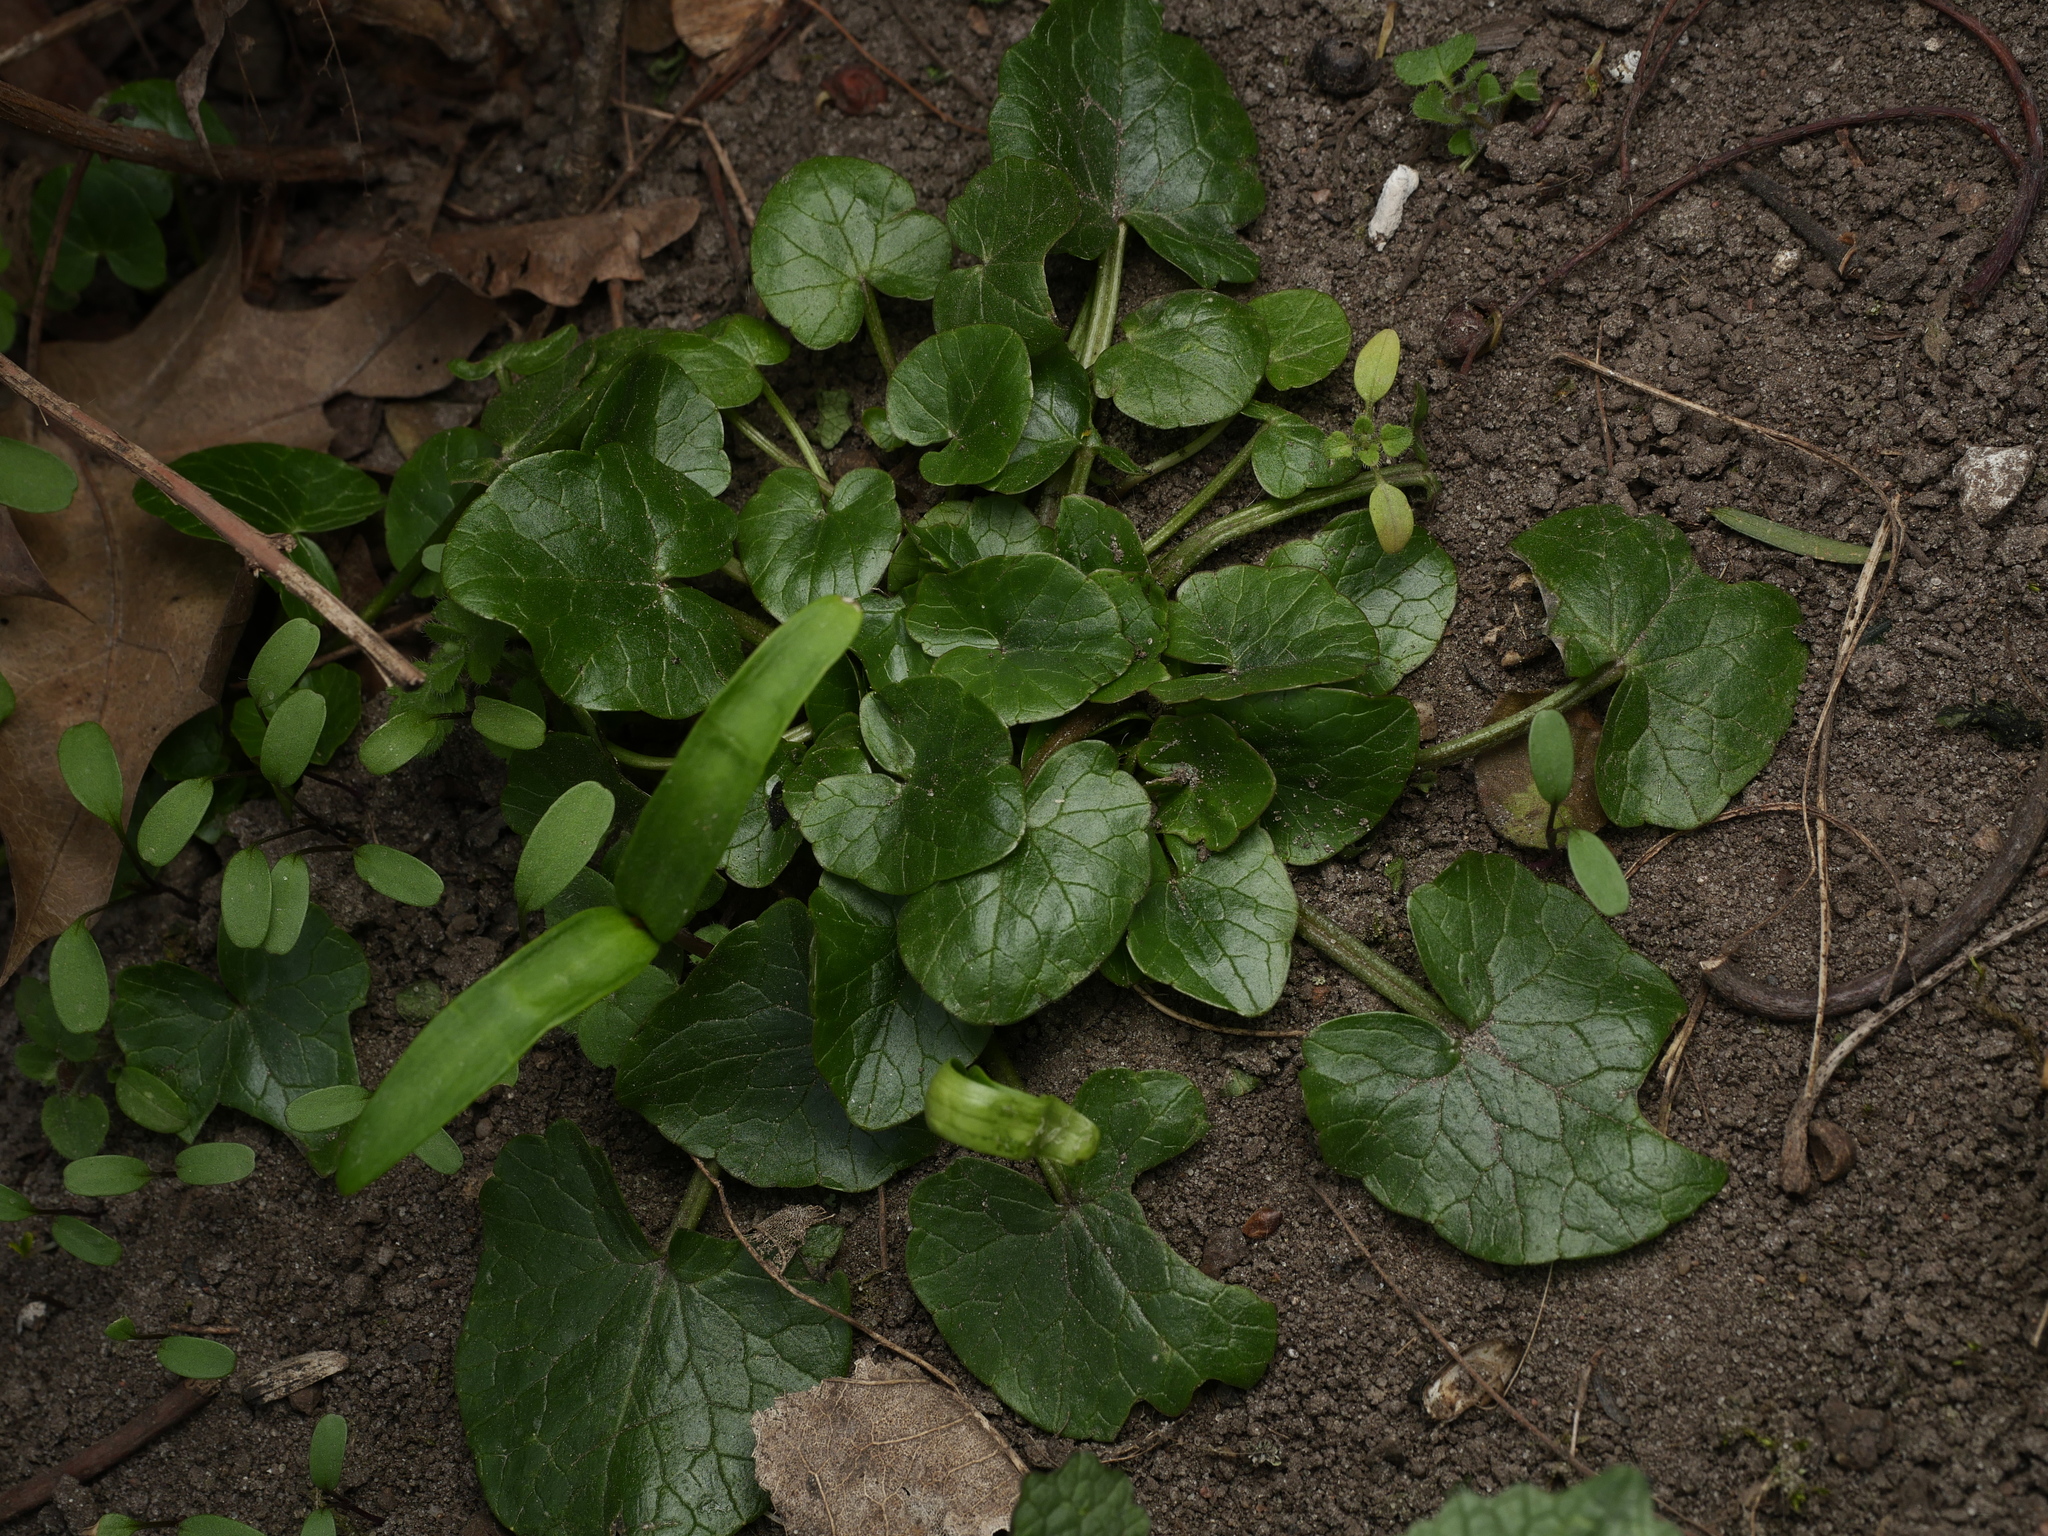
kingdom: Plantae
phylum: Tracheophyta
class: Magnoliopsida
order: Ranunculales
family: Ranunculaceae
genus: Ficaria
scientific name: Ficaria verna
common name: Lesser celandine
